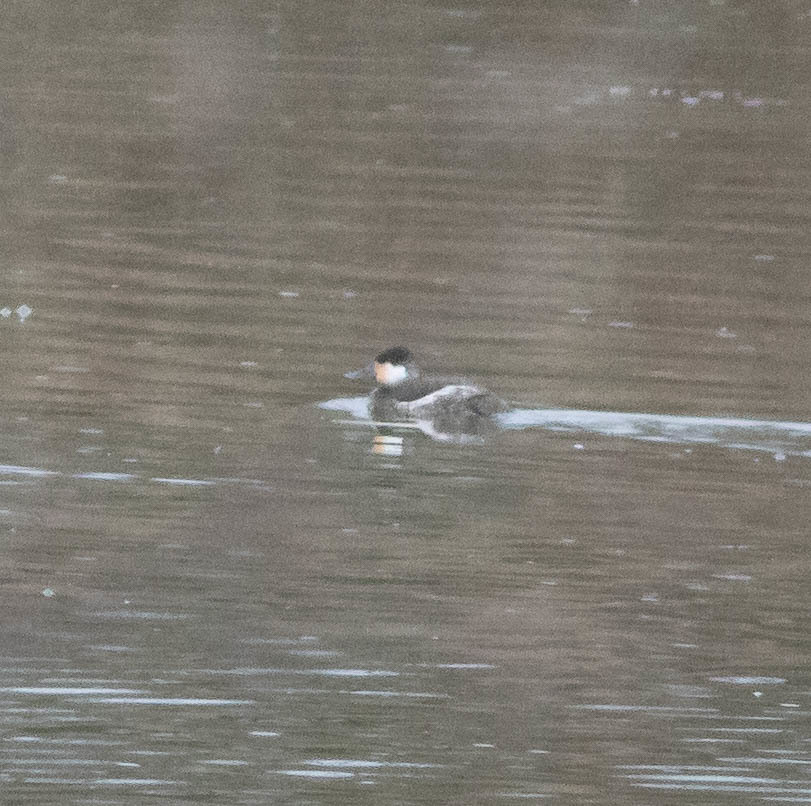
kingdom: Animalia
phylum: Chordata
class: Aves
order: Anseriformes
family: Anatidae
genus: Oxyura
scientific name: Oxyura jamaicensis
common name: Ruddy duck
